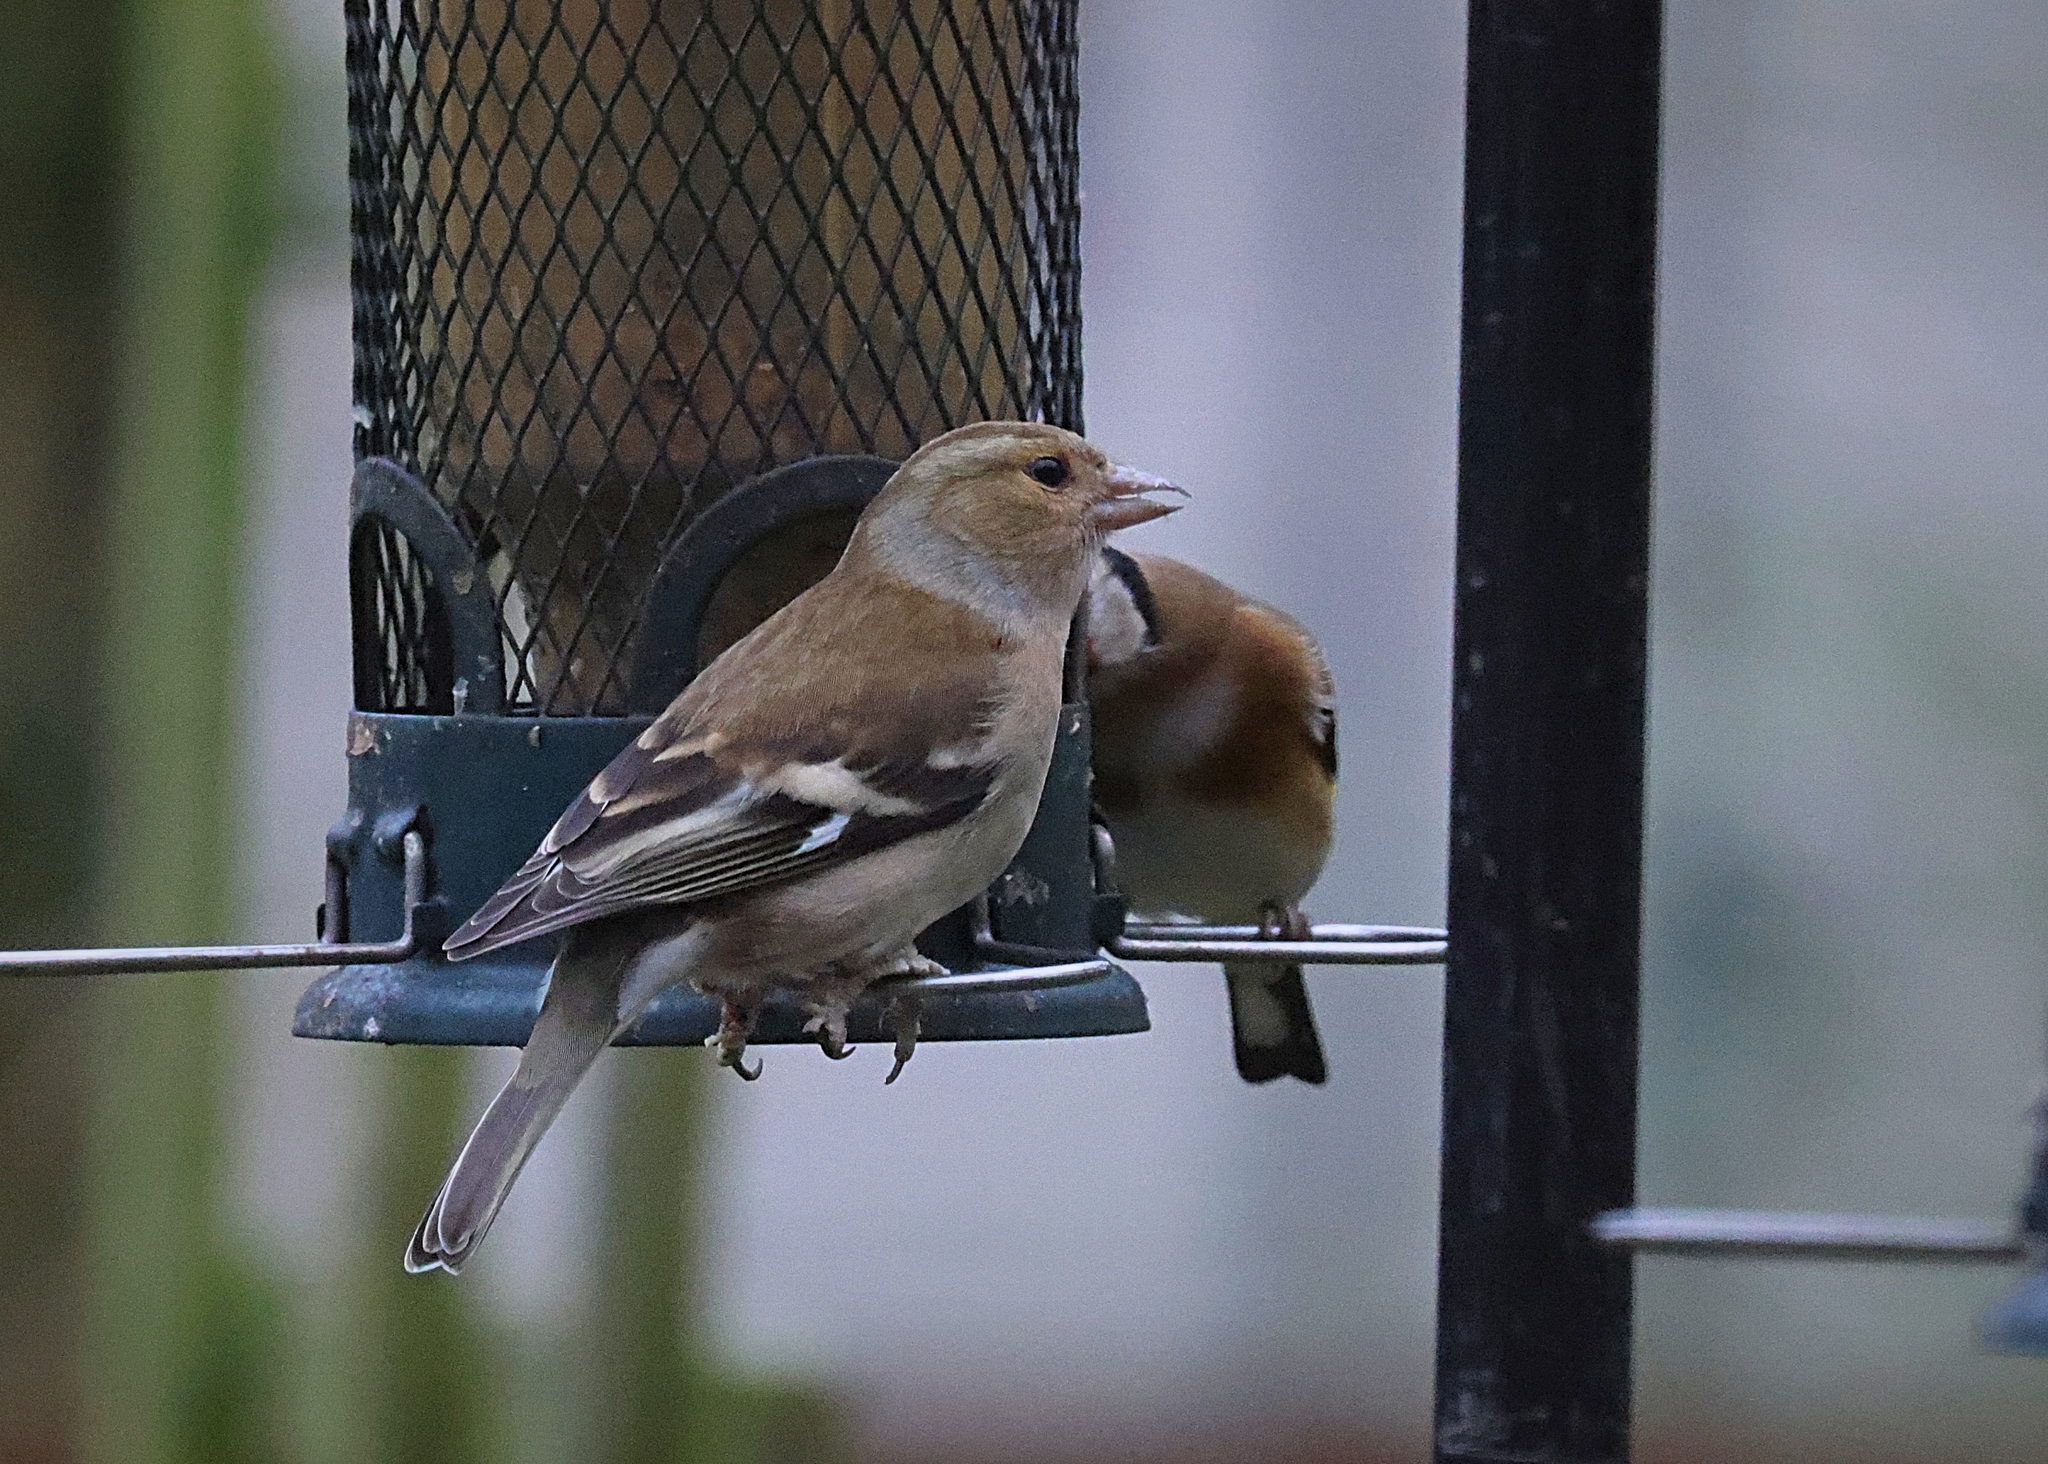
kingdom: Animalia
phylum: Chordata
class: Aves
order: Passeriformes
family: Fringillidae
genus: Fringilla
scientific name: Fringilla coelebs
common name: Common chaffinch
